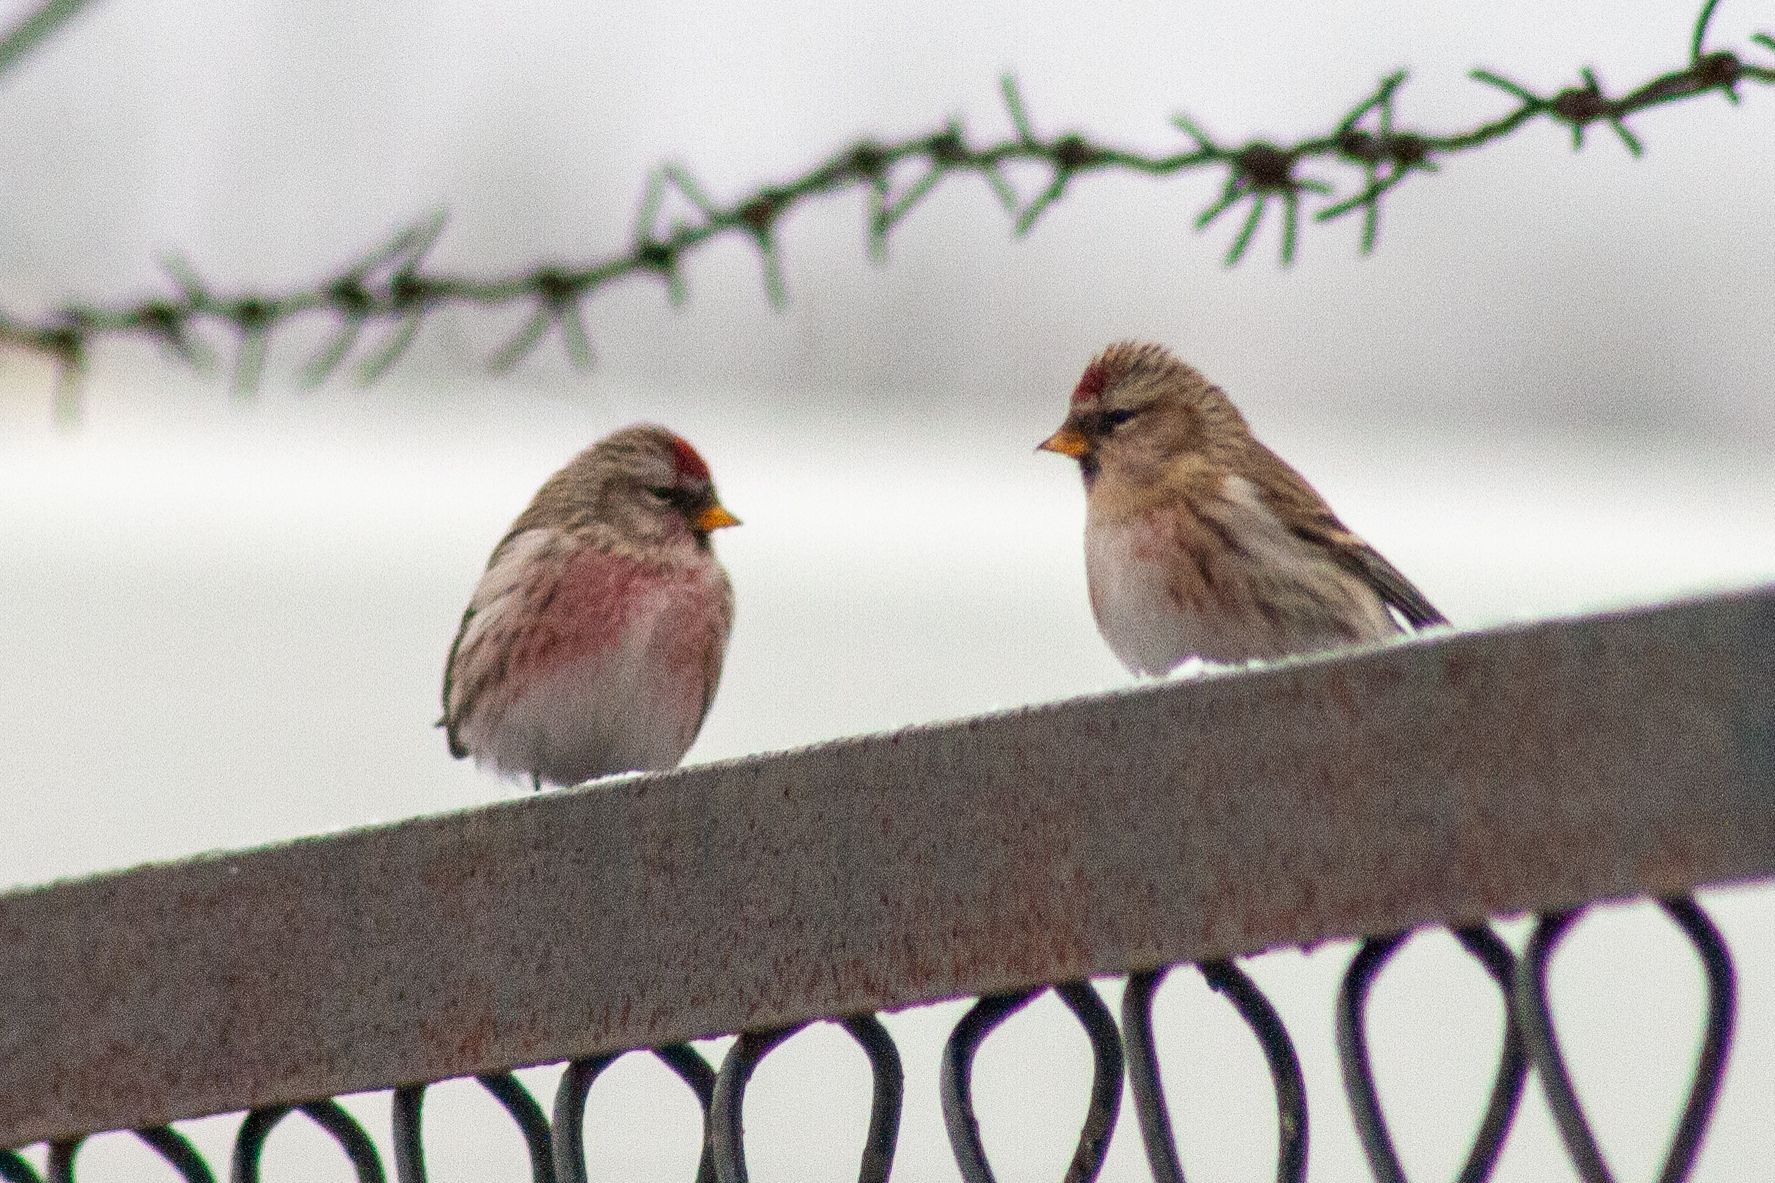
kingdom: Animalia
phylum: Chordata
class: Aves
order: Passeriformes
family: Fringillidae
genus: Acanthis
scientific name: Acanthis flammea
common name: Common redpoll
